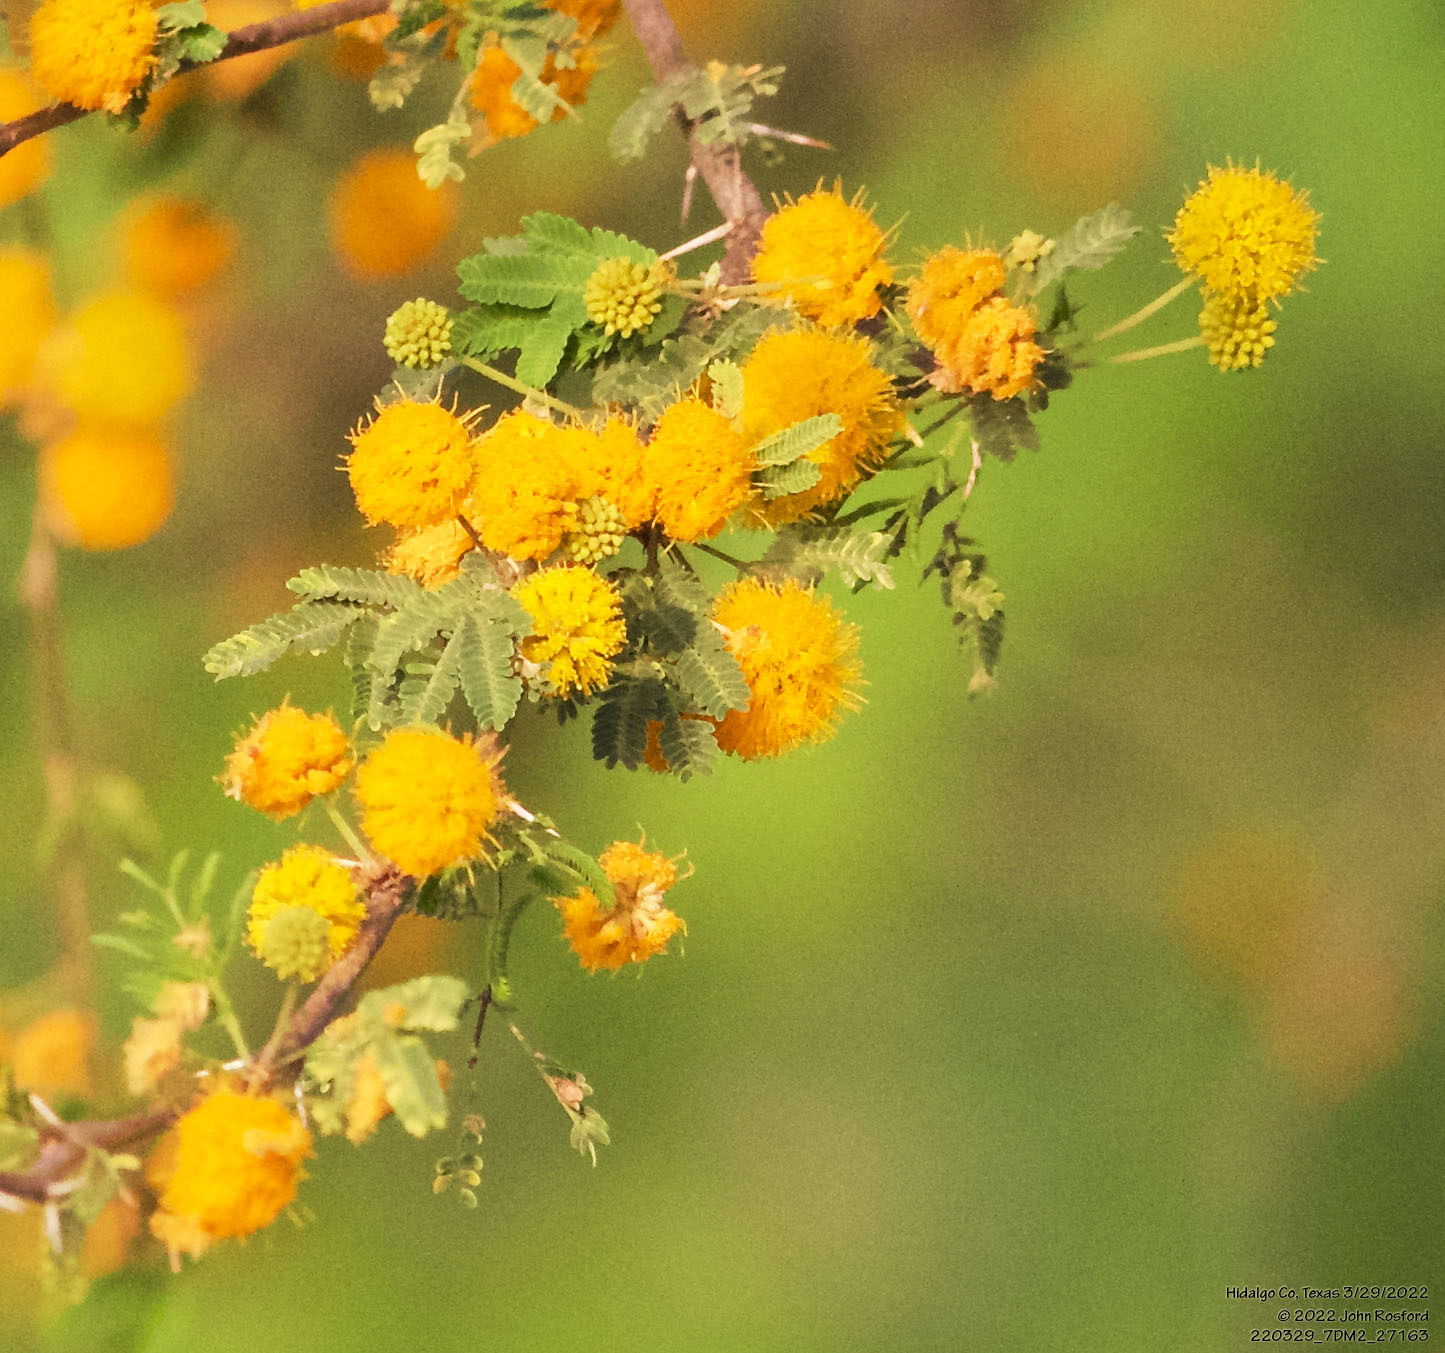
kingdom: Plantae
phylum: Tracheophyta
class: Magnoliopsida
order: Fabales
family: Fabaceae
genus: Vachellia
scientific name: Vachellia farnesiana
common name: Sweet acacia
